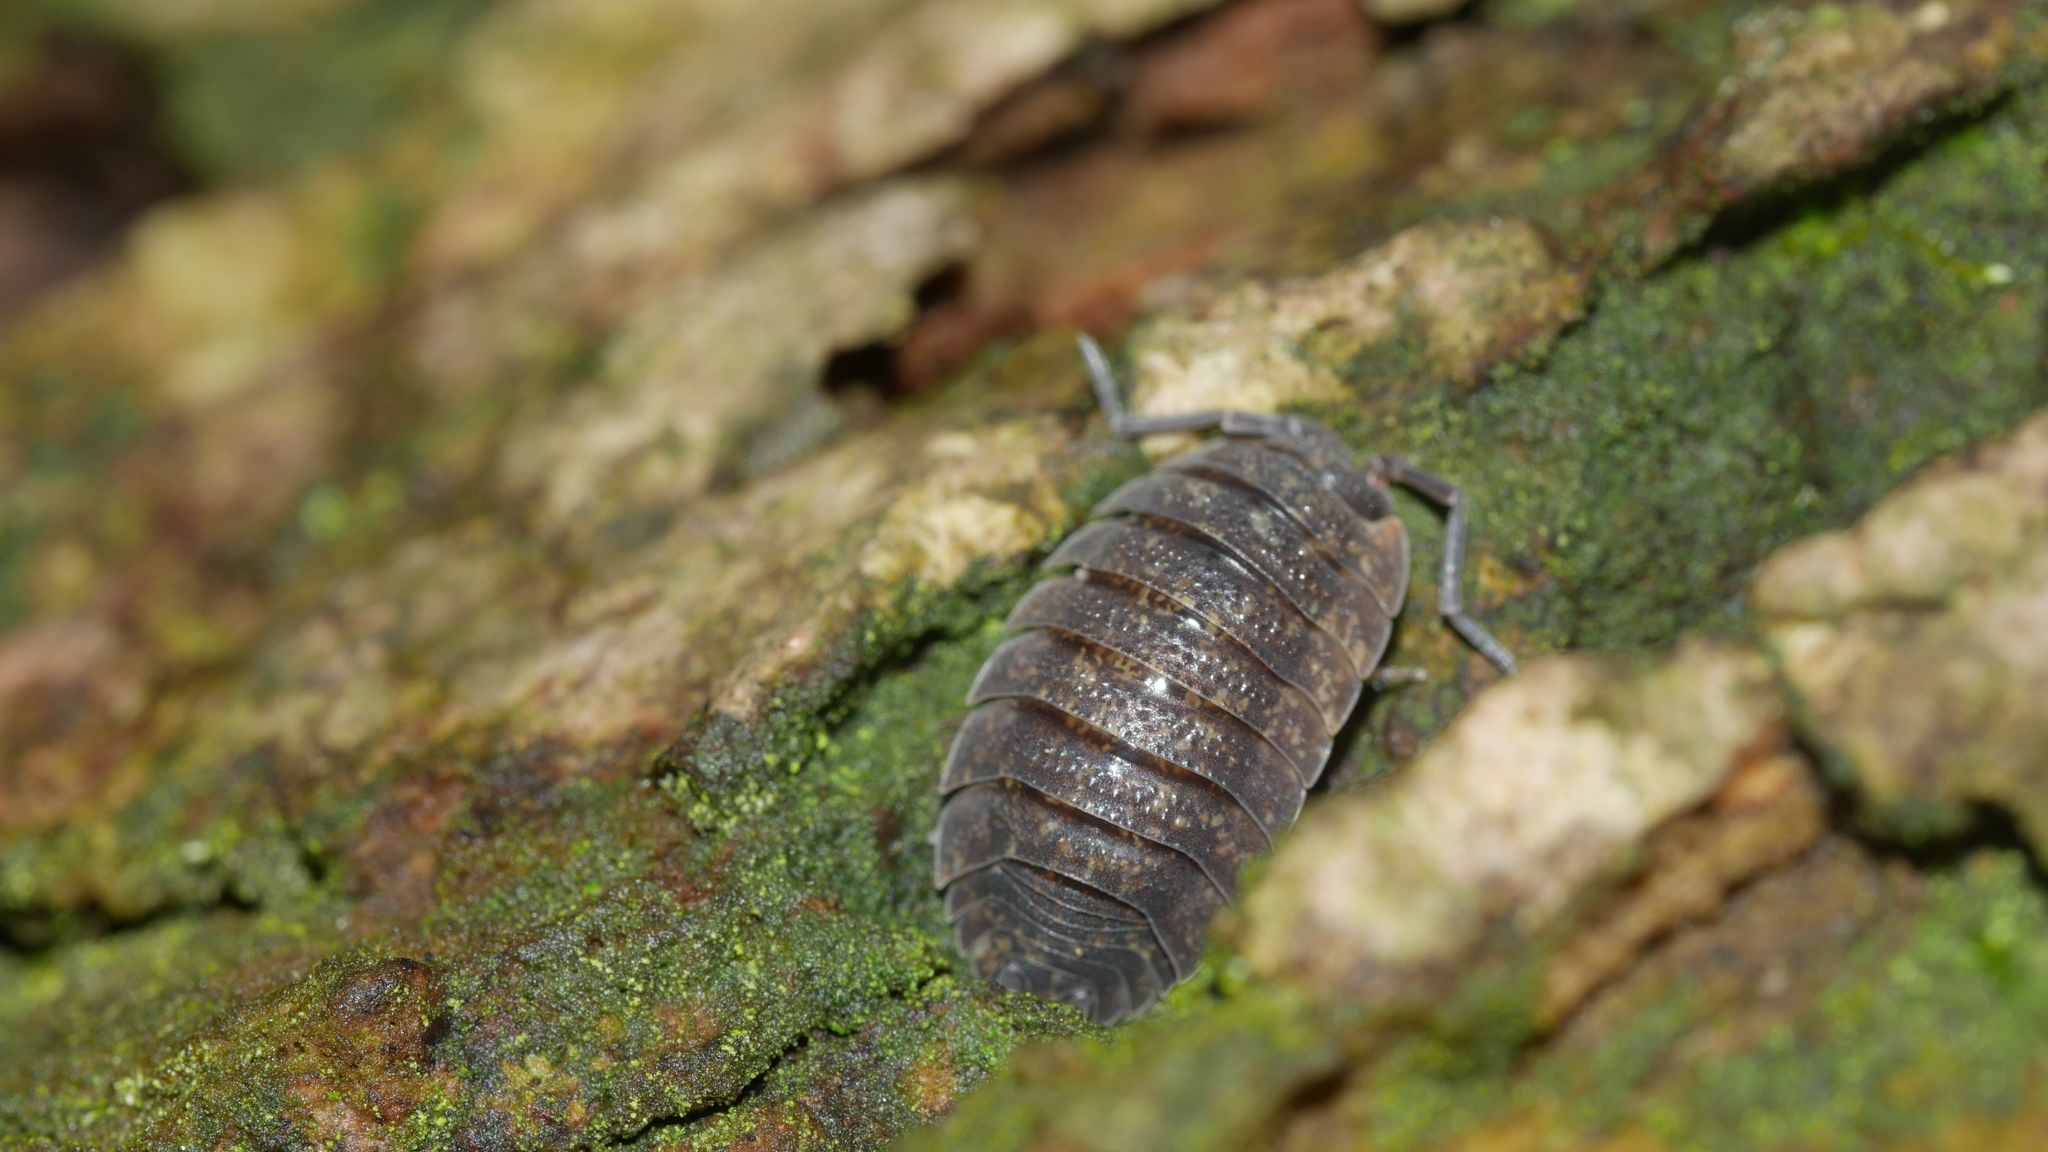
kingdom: Animalia
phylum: Arthropoda
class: Malacostraca
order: Isopoda
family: Porcellionidae
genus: Porcellio
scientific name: Porcellio scaber
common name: Common rough woodlouse
